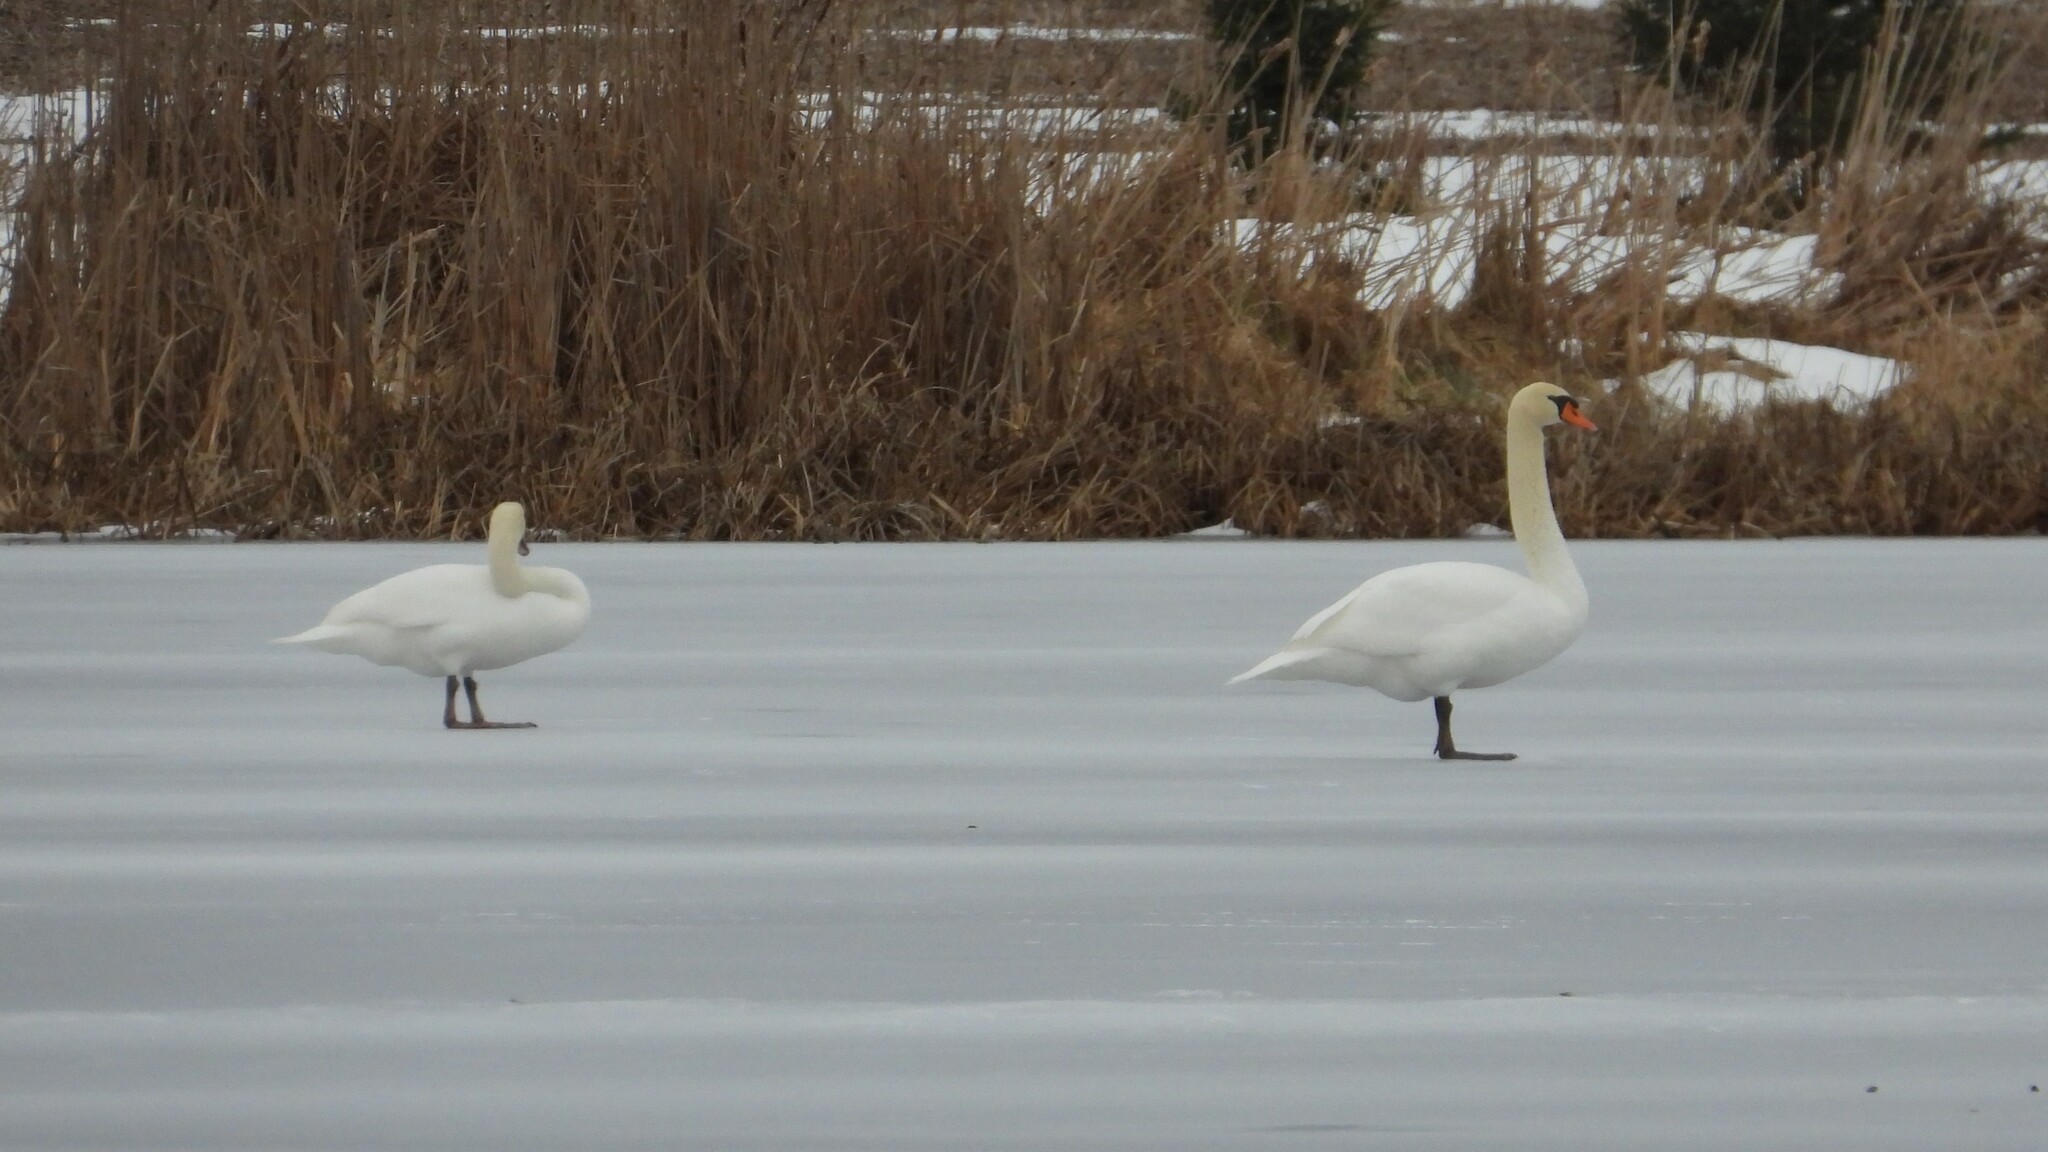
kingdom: Animalia
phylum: Chordata
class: Aves
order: Anseriformes
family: Anatidae
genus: Cygnus
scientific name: Cygnus olor
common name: Mute swan
